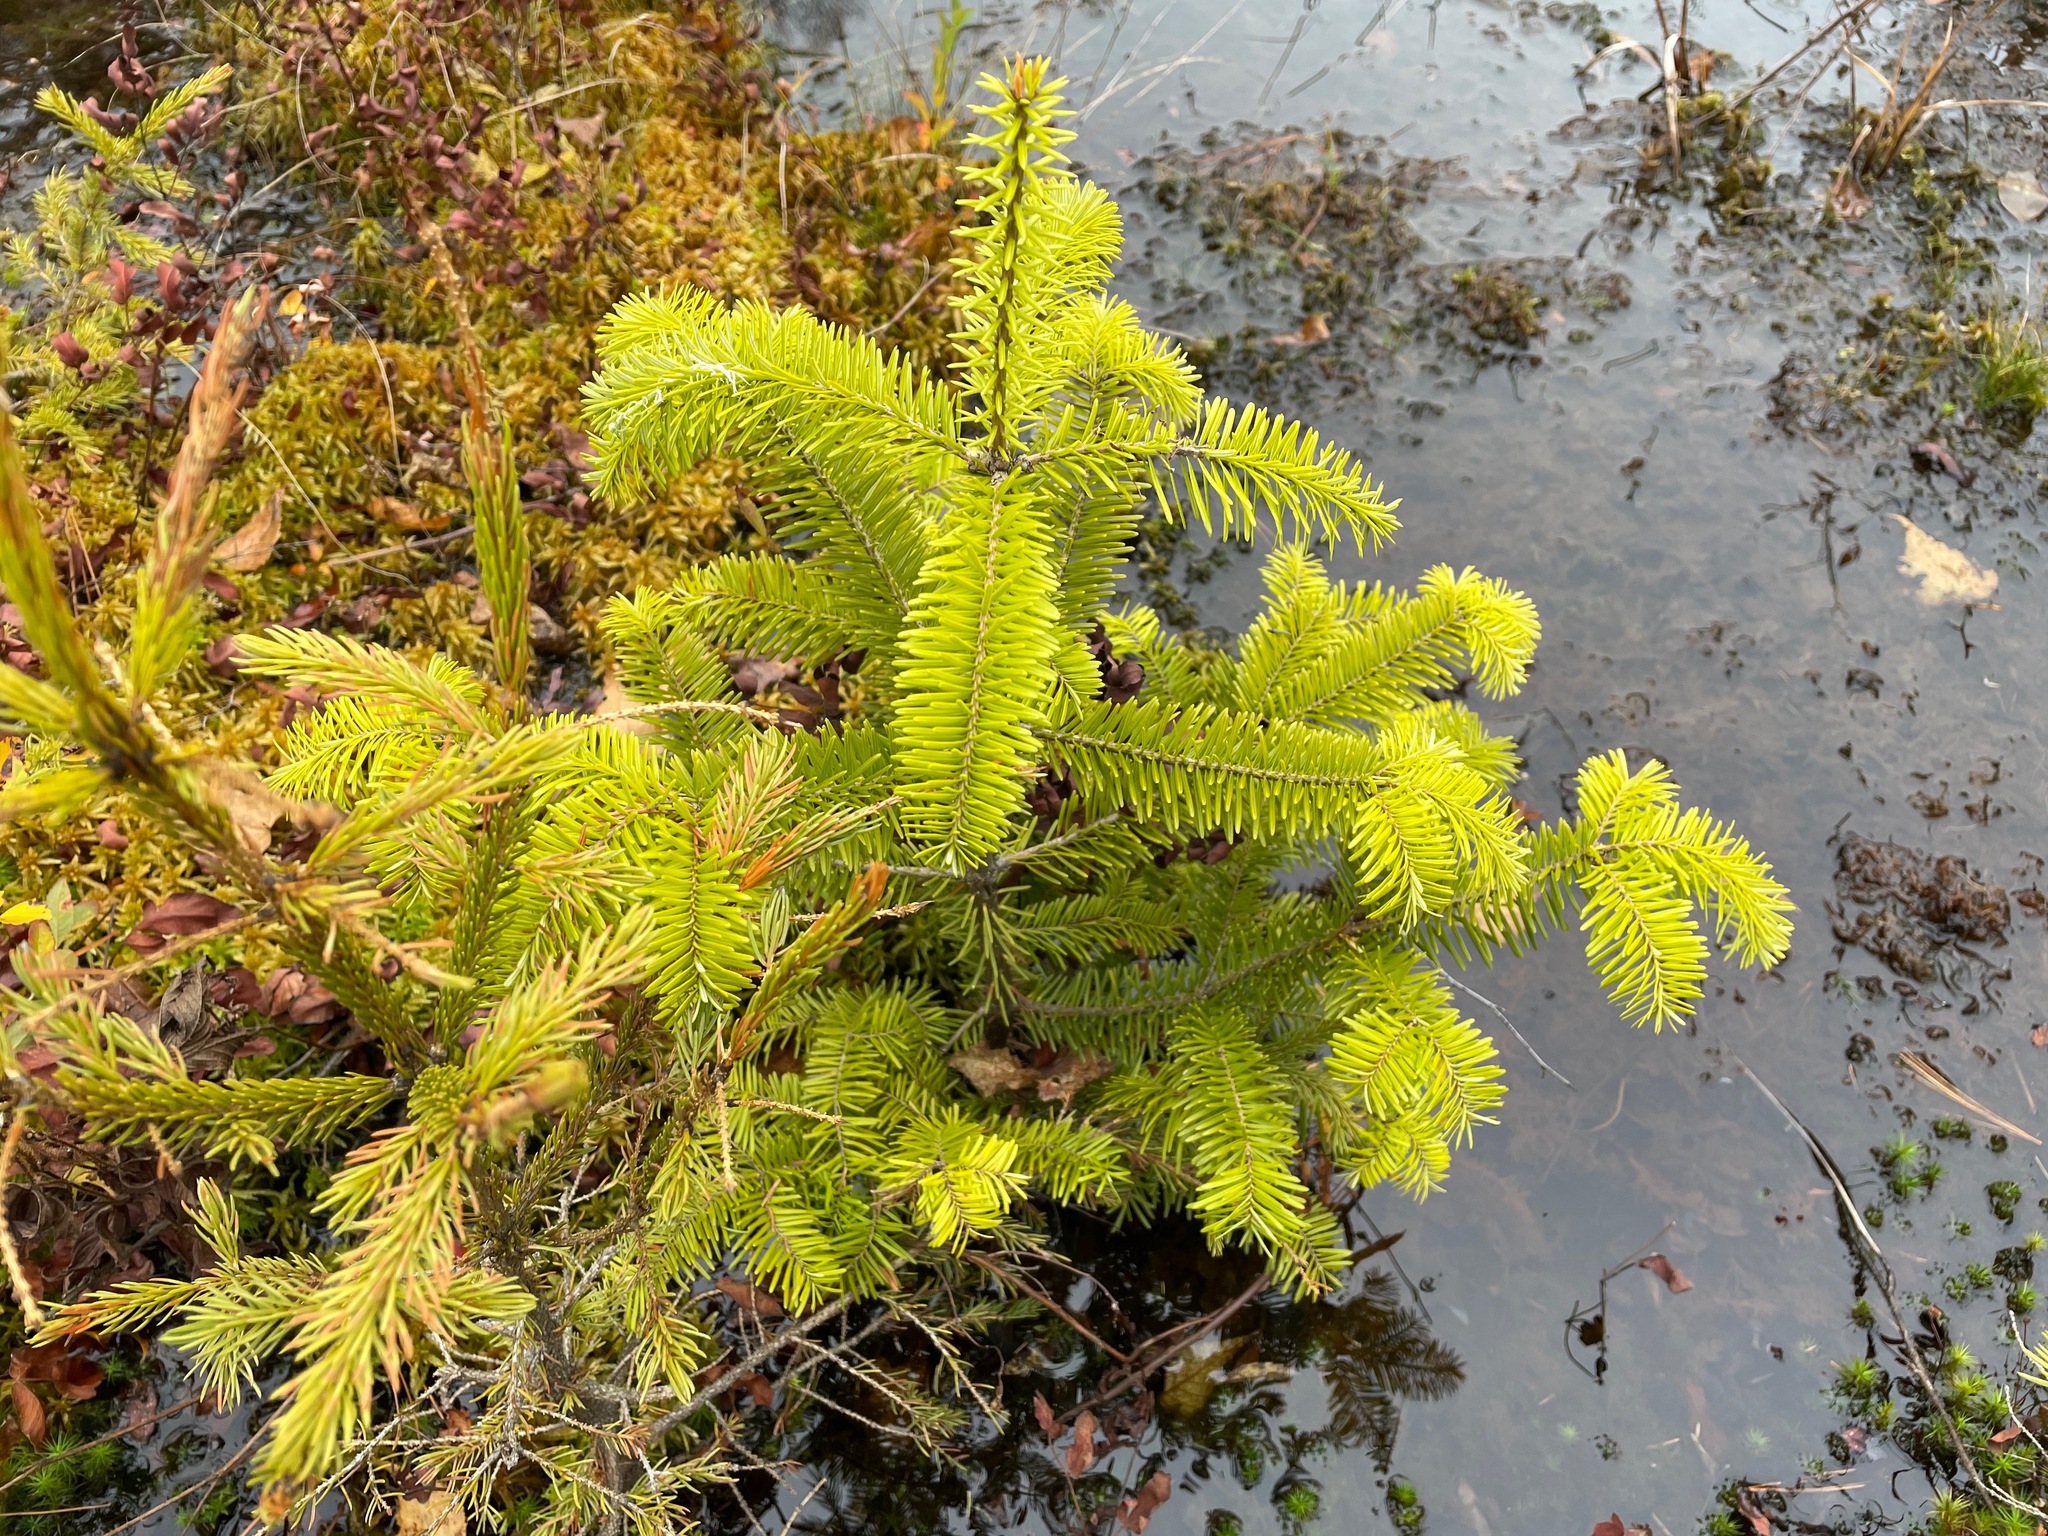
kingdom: Plantae
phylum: Tracheophyta
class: Pinopsida
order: Pinales
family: Pinaceae
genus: Abies
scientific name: Abies balsamea
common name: Balsam fir
